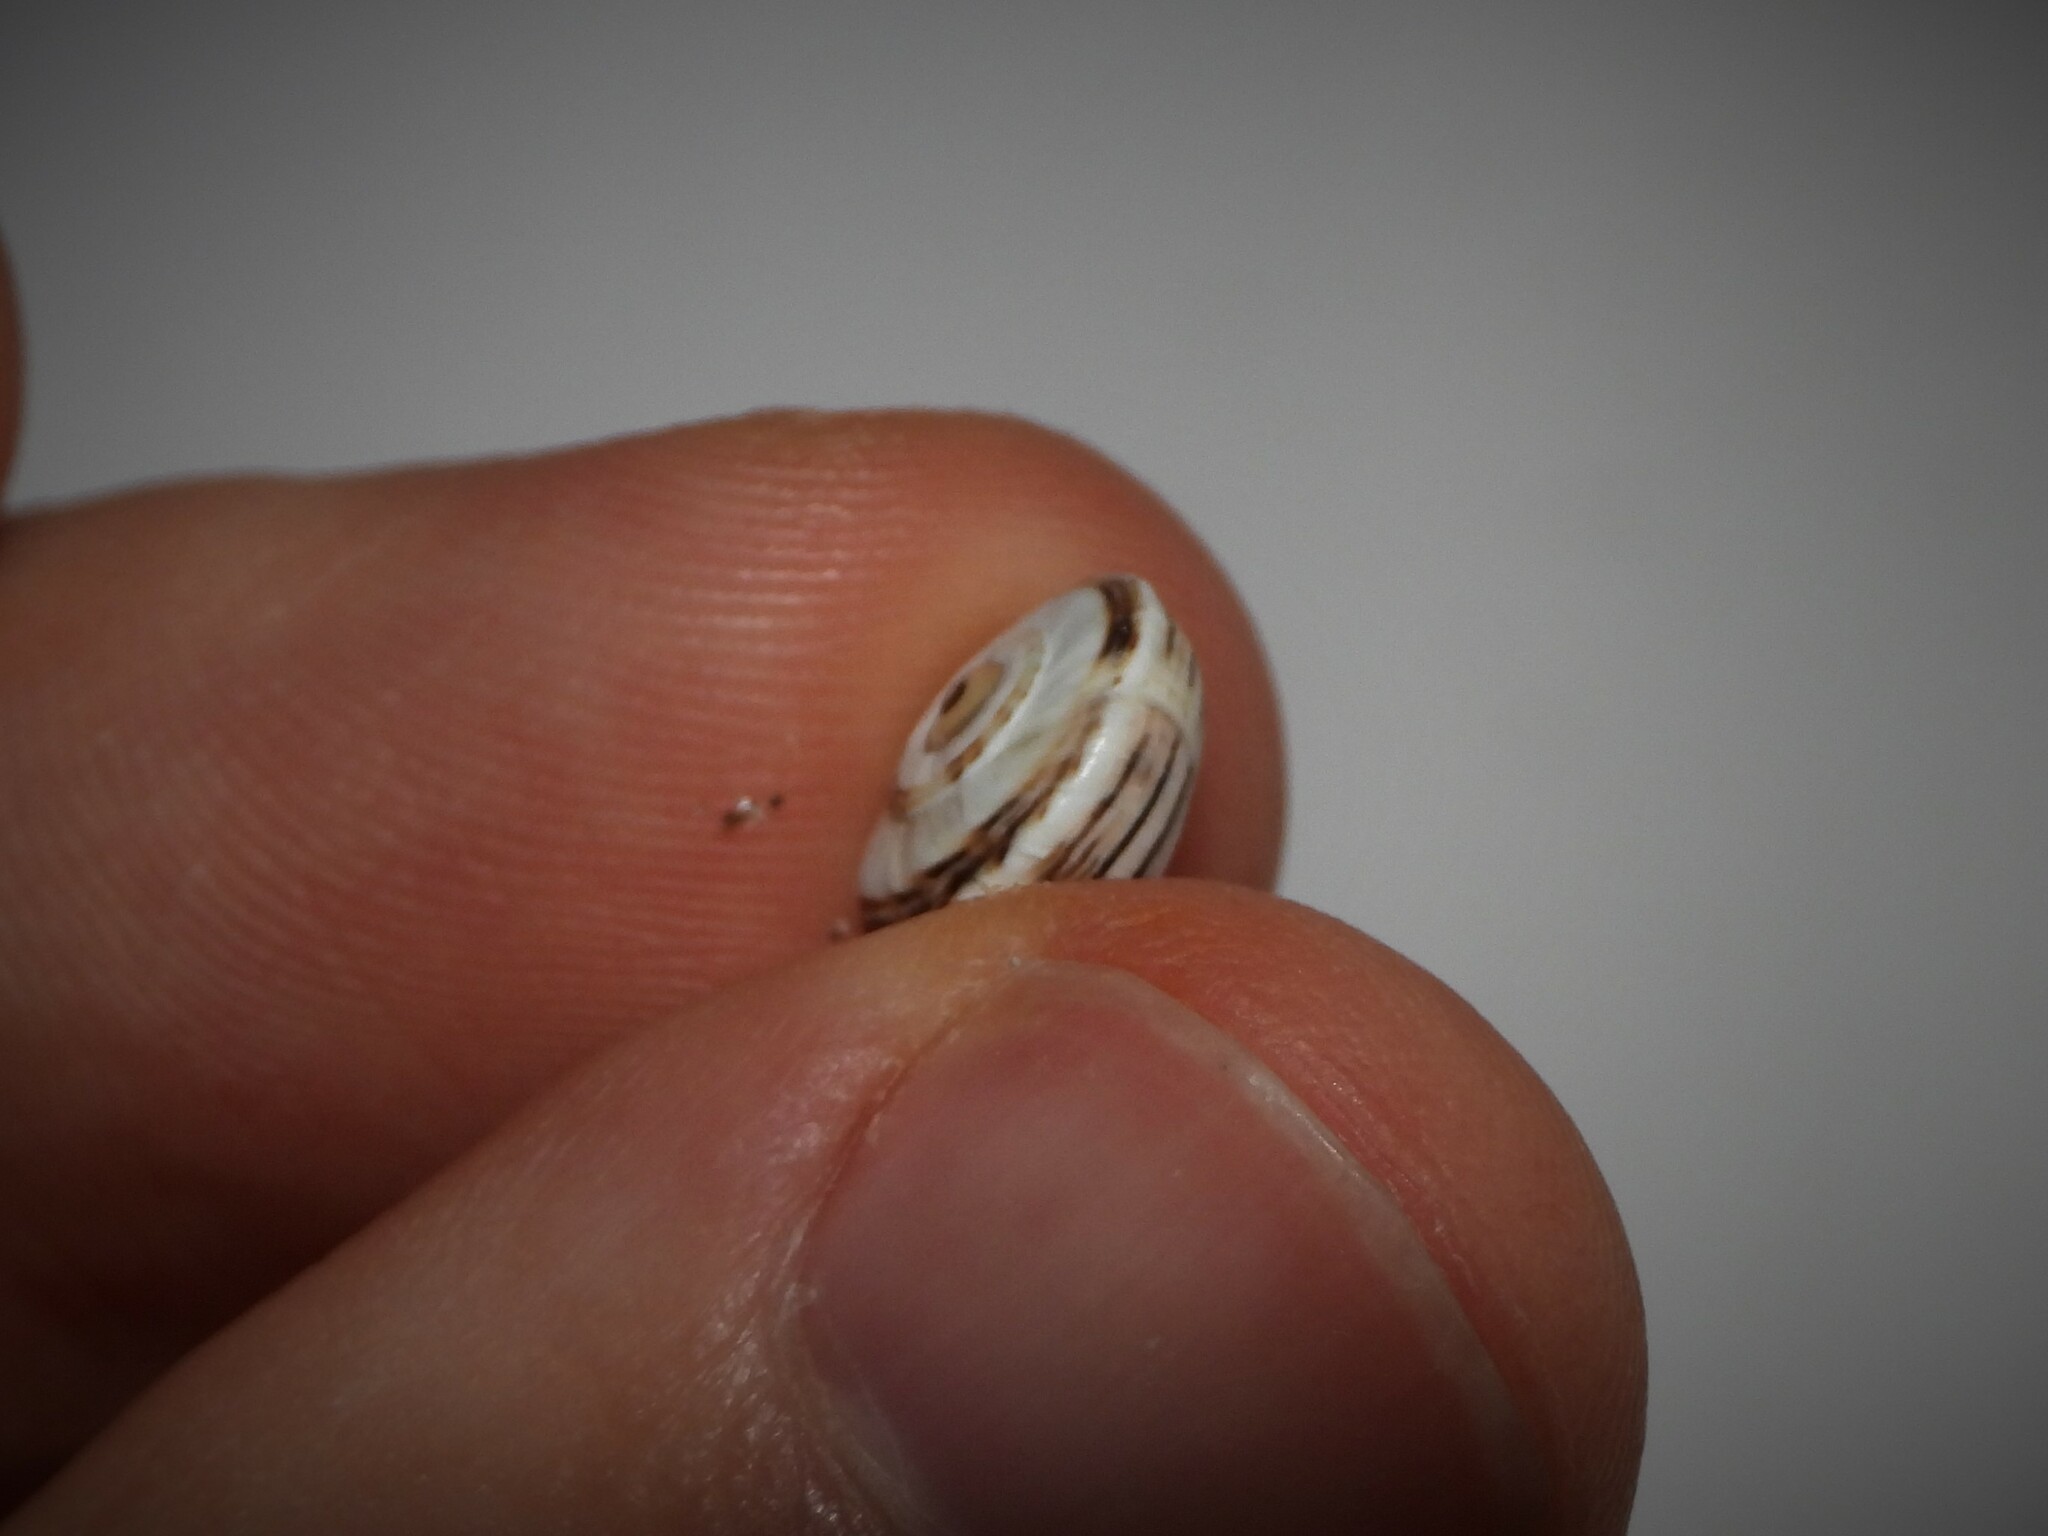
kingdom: Animalia
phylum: Mollusca
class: Gastropoda
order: Stylommatophora
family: Helicidae
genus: Theba
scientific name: Theba pisana
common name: White snail
